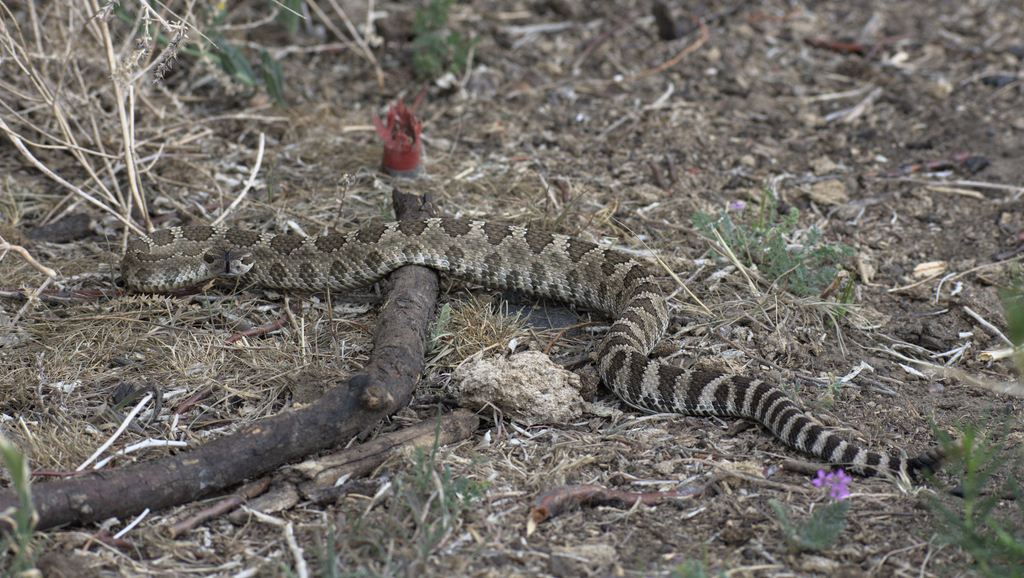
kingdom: Animalia
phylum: Chordata
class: Squamata
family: Viperidae
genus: Crotalus
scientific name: Crotalus oreganus
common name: Abyssus
